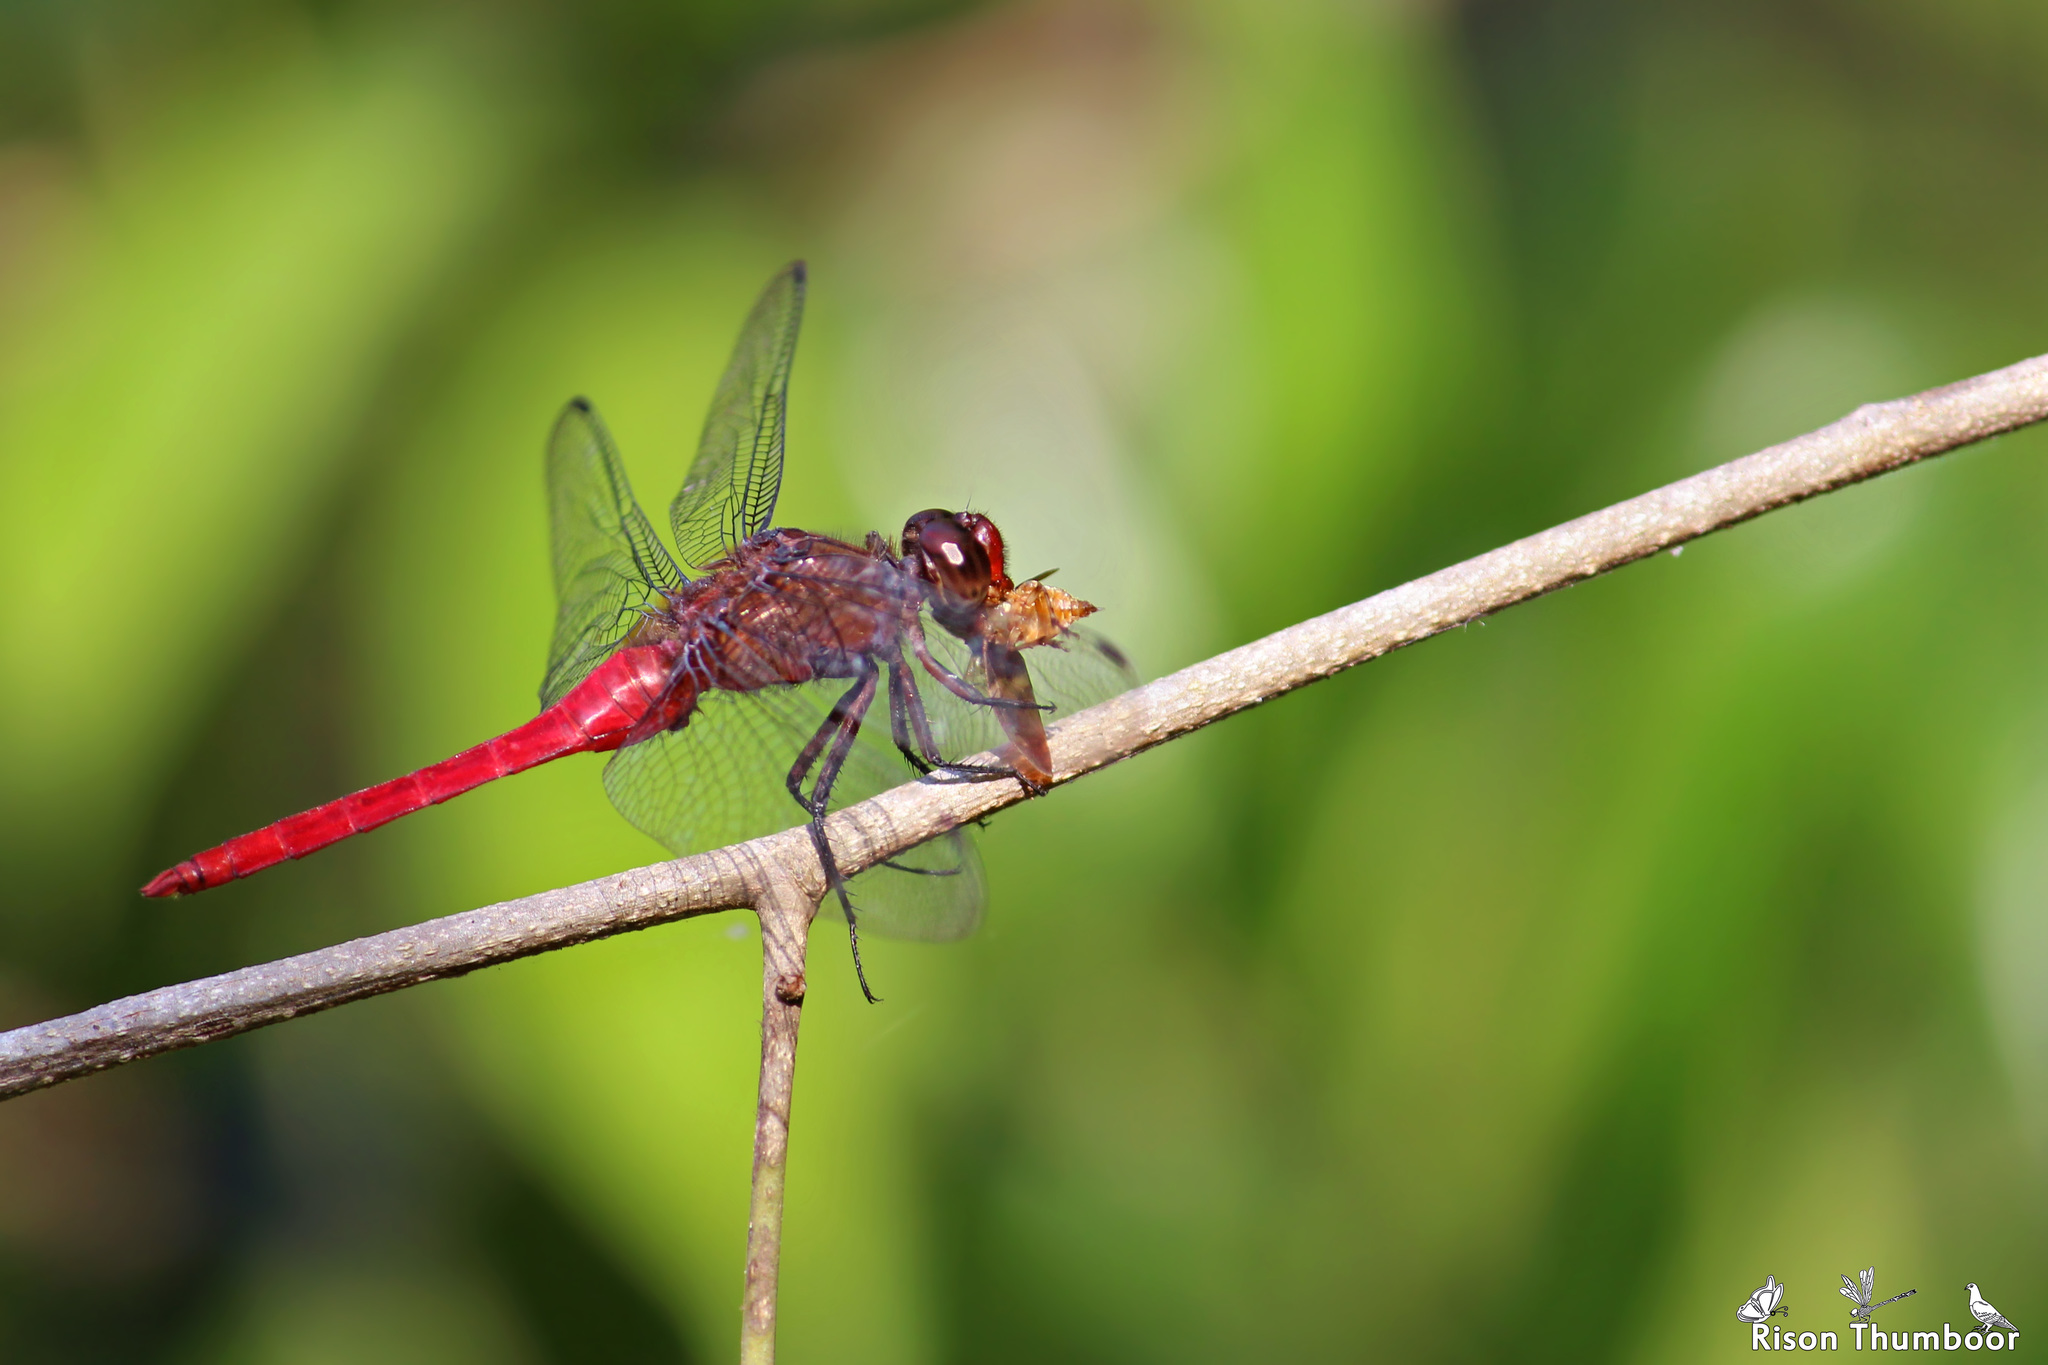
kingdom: Animalia
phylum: Arthropoda
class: Insecta
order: Odonata
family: Libellulidae
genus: Orthetrum
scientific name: Orthetrum chrysis
